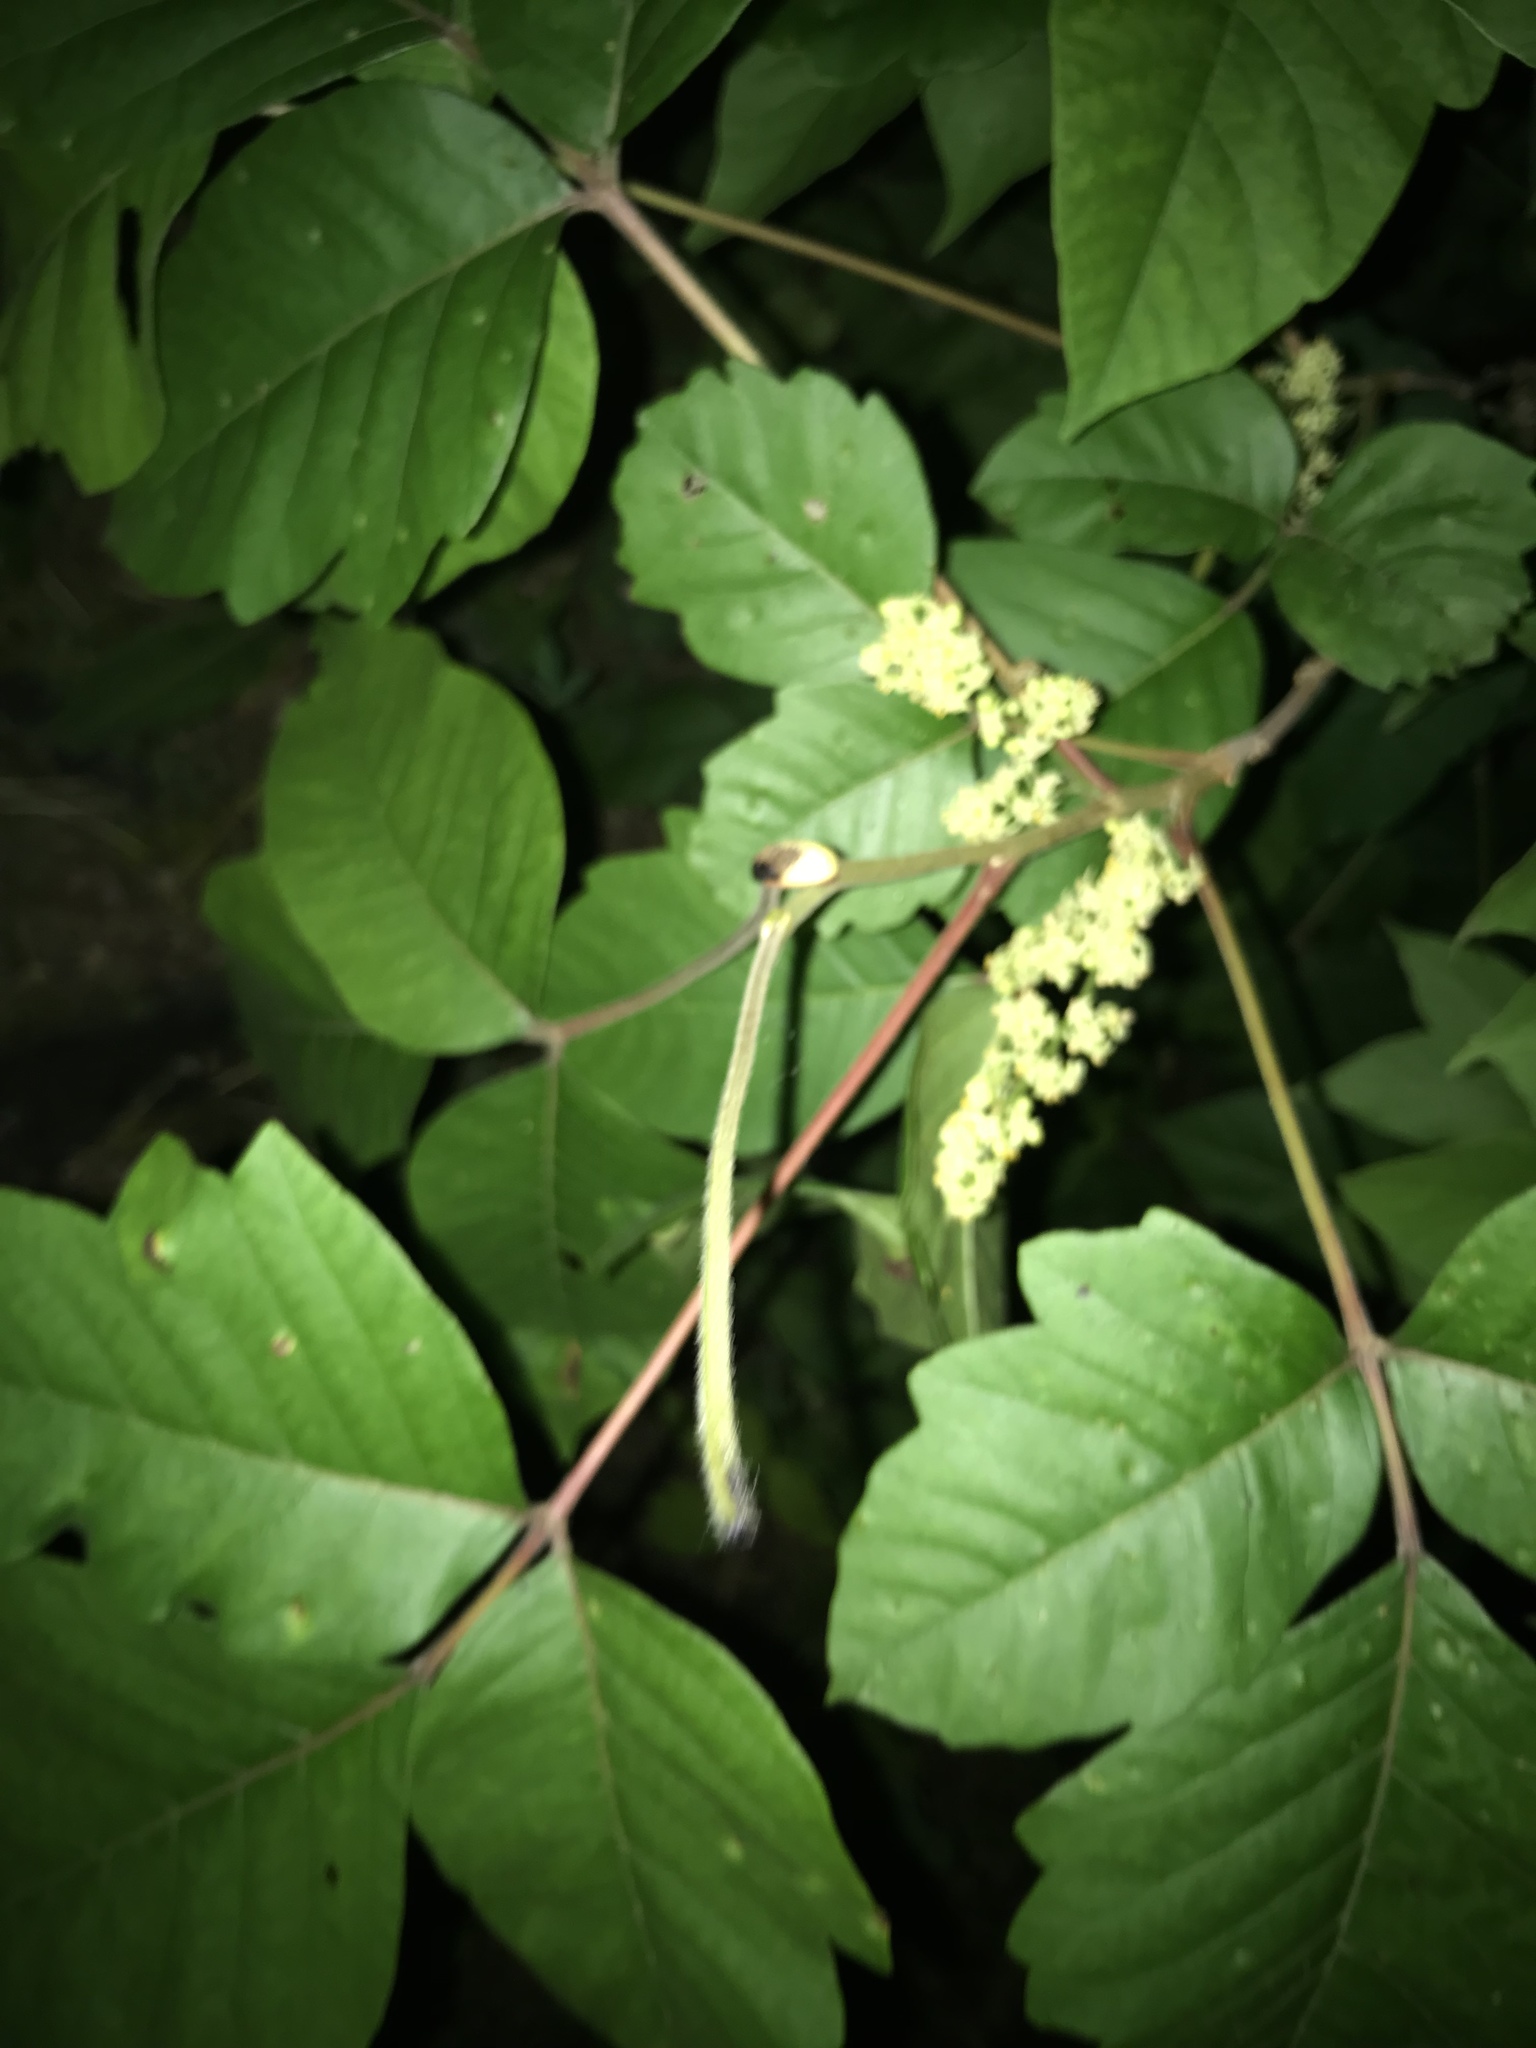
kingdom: Plantae
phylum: Tracheophyta
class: Magnoliopsida
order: Sapindales
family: Anacardiaceae
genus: Toxicodendron
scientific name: Toxicodendron radicans
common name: Poison ivy
